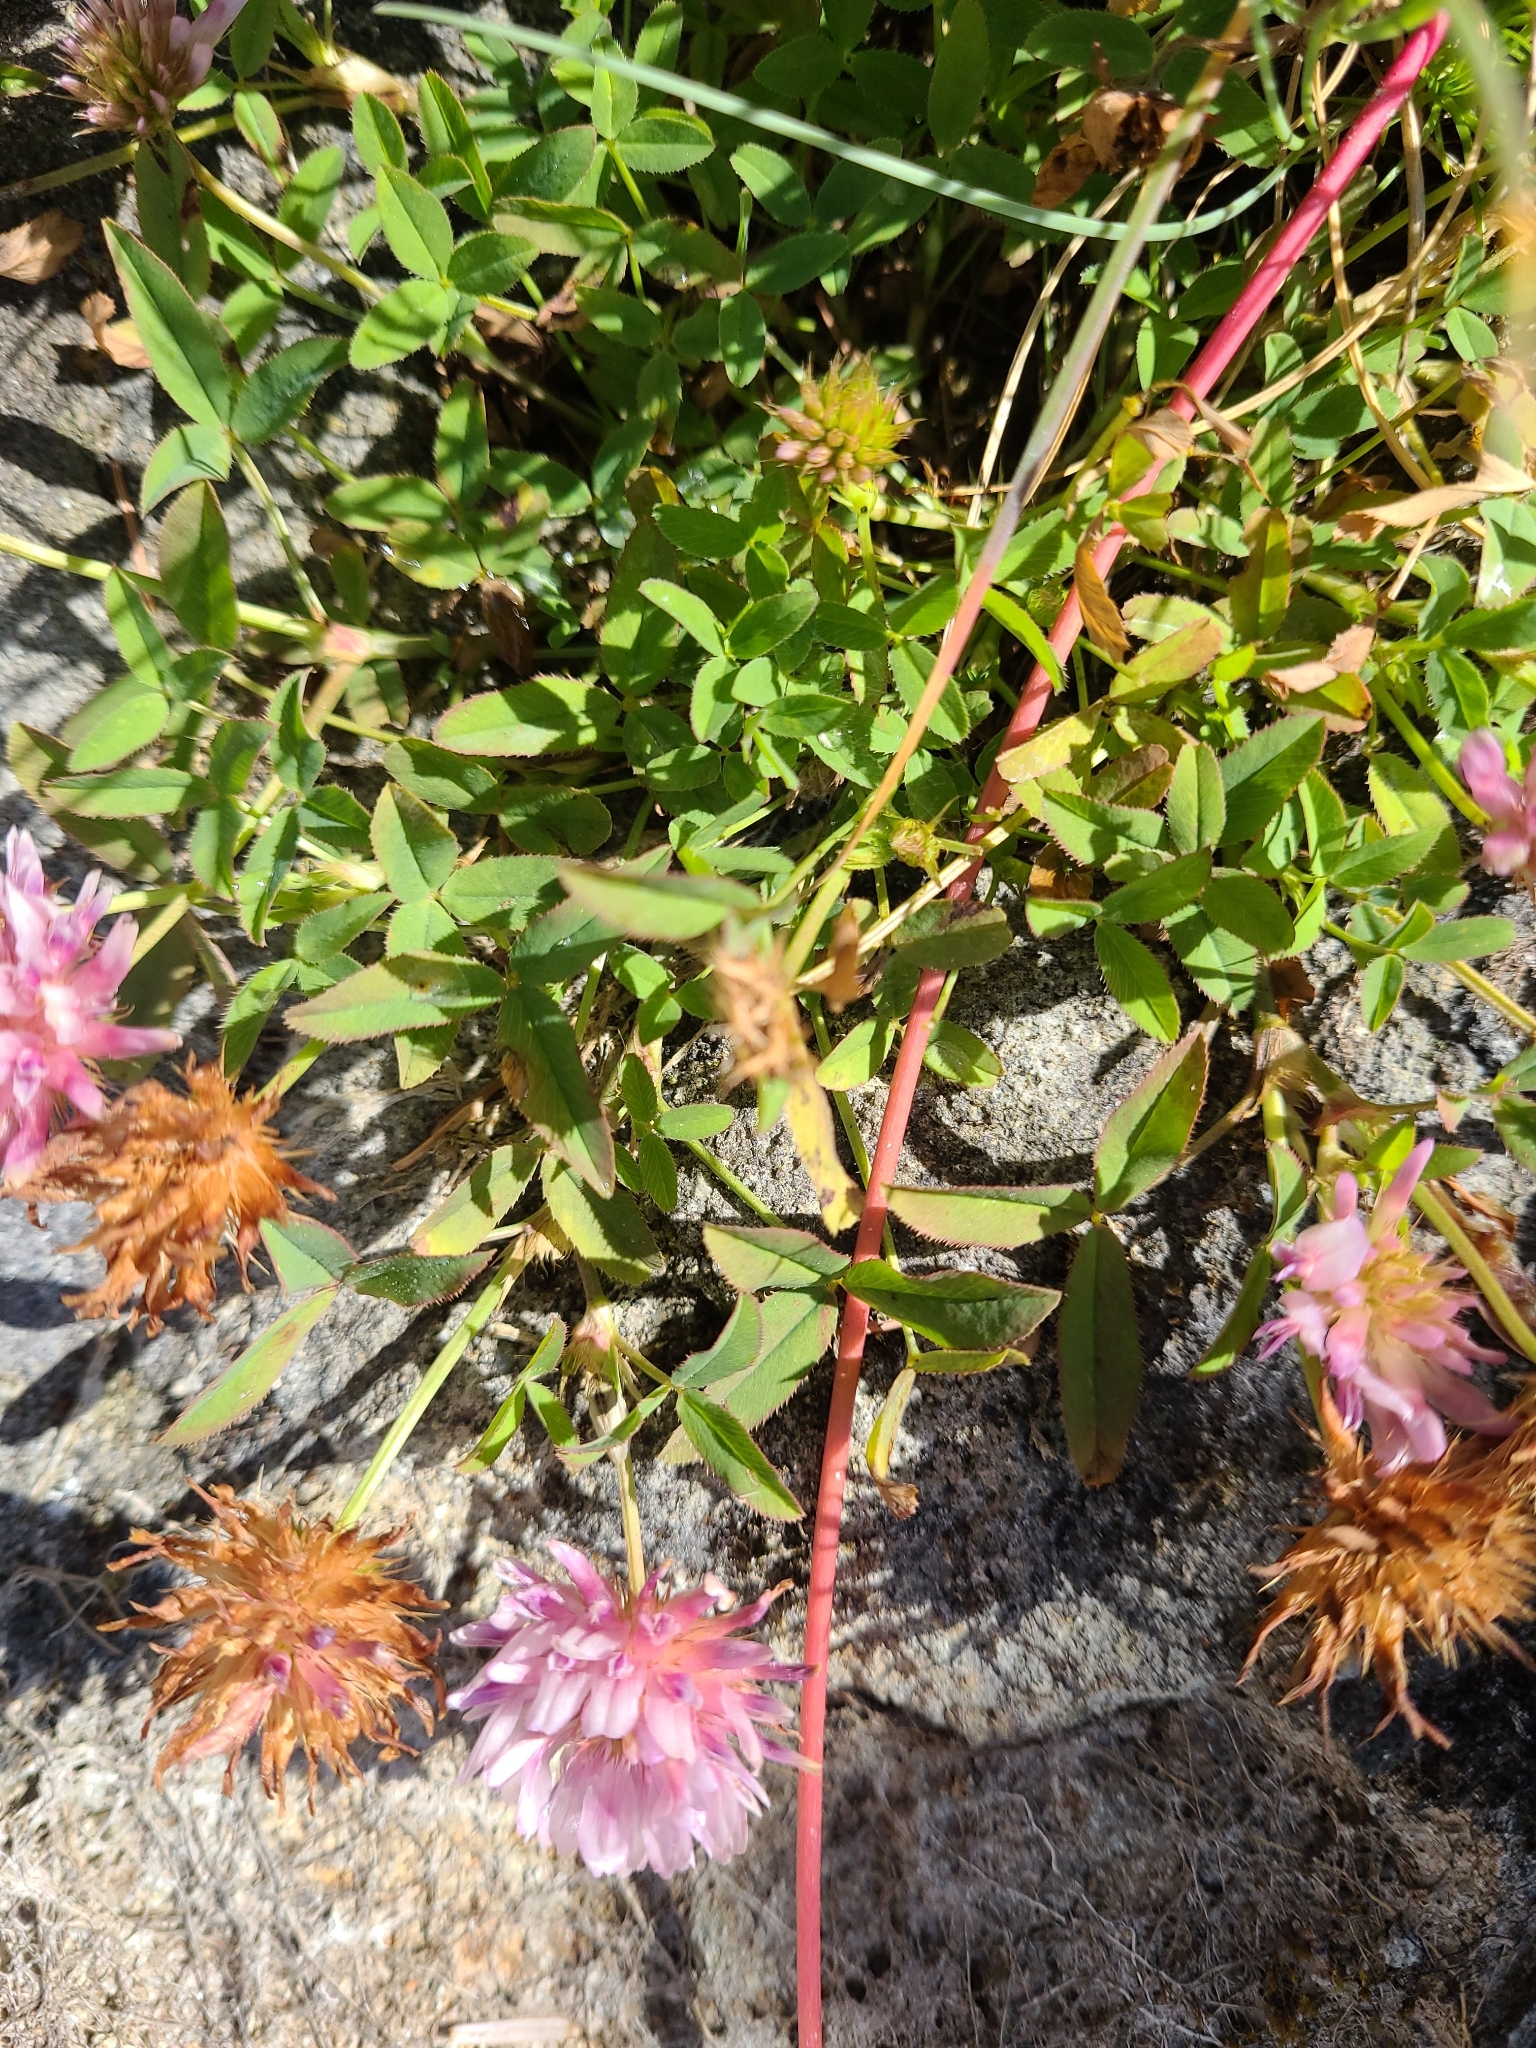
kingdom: Plantae
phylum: Tracheophyta
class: Magnoliopsida
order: Fabales
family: Fabaceae
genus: Trifolium
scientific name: Trifolium wormskioldii
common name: Springbank clover
